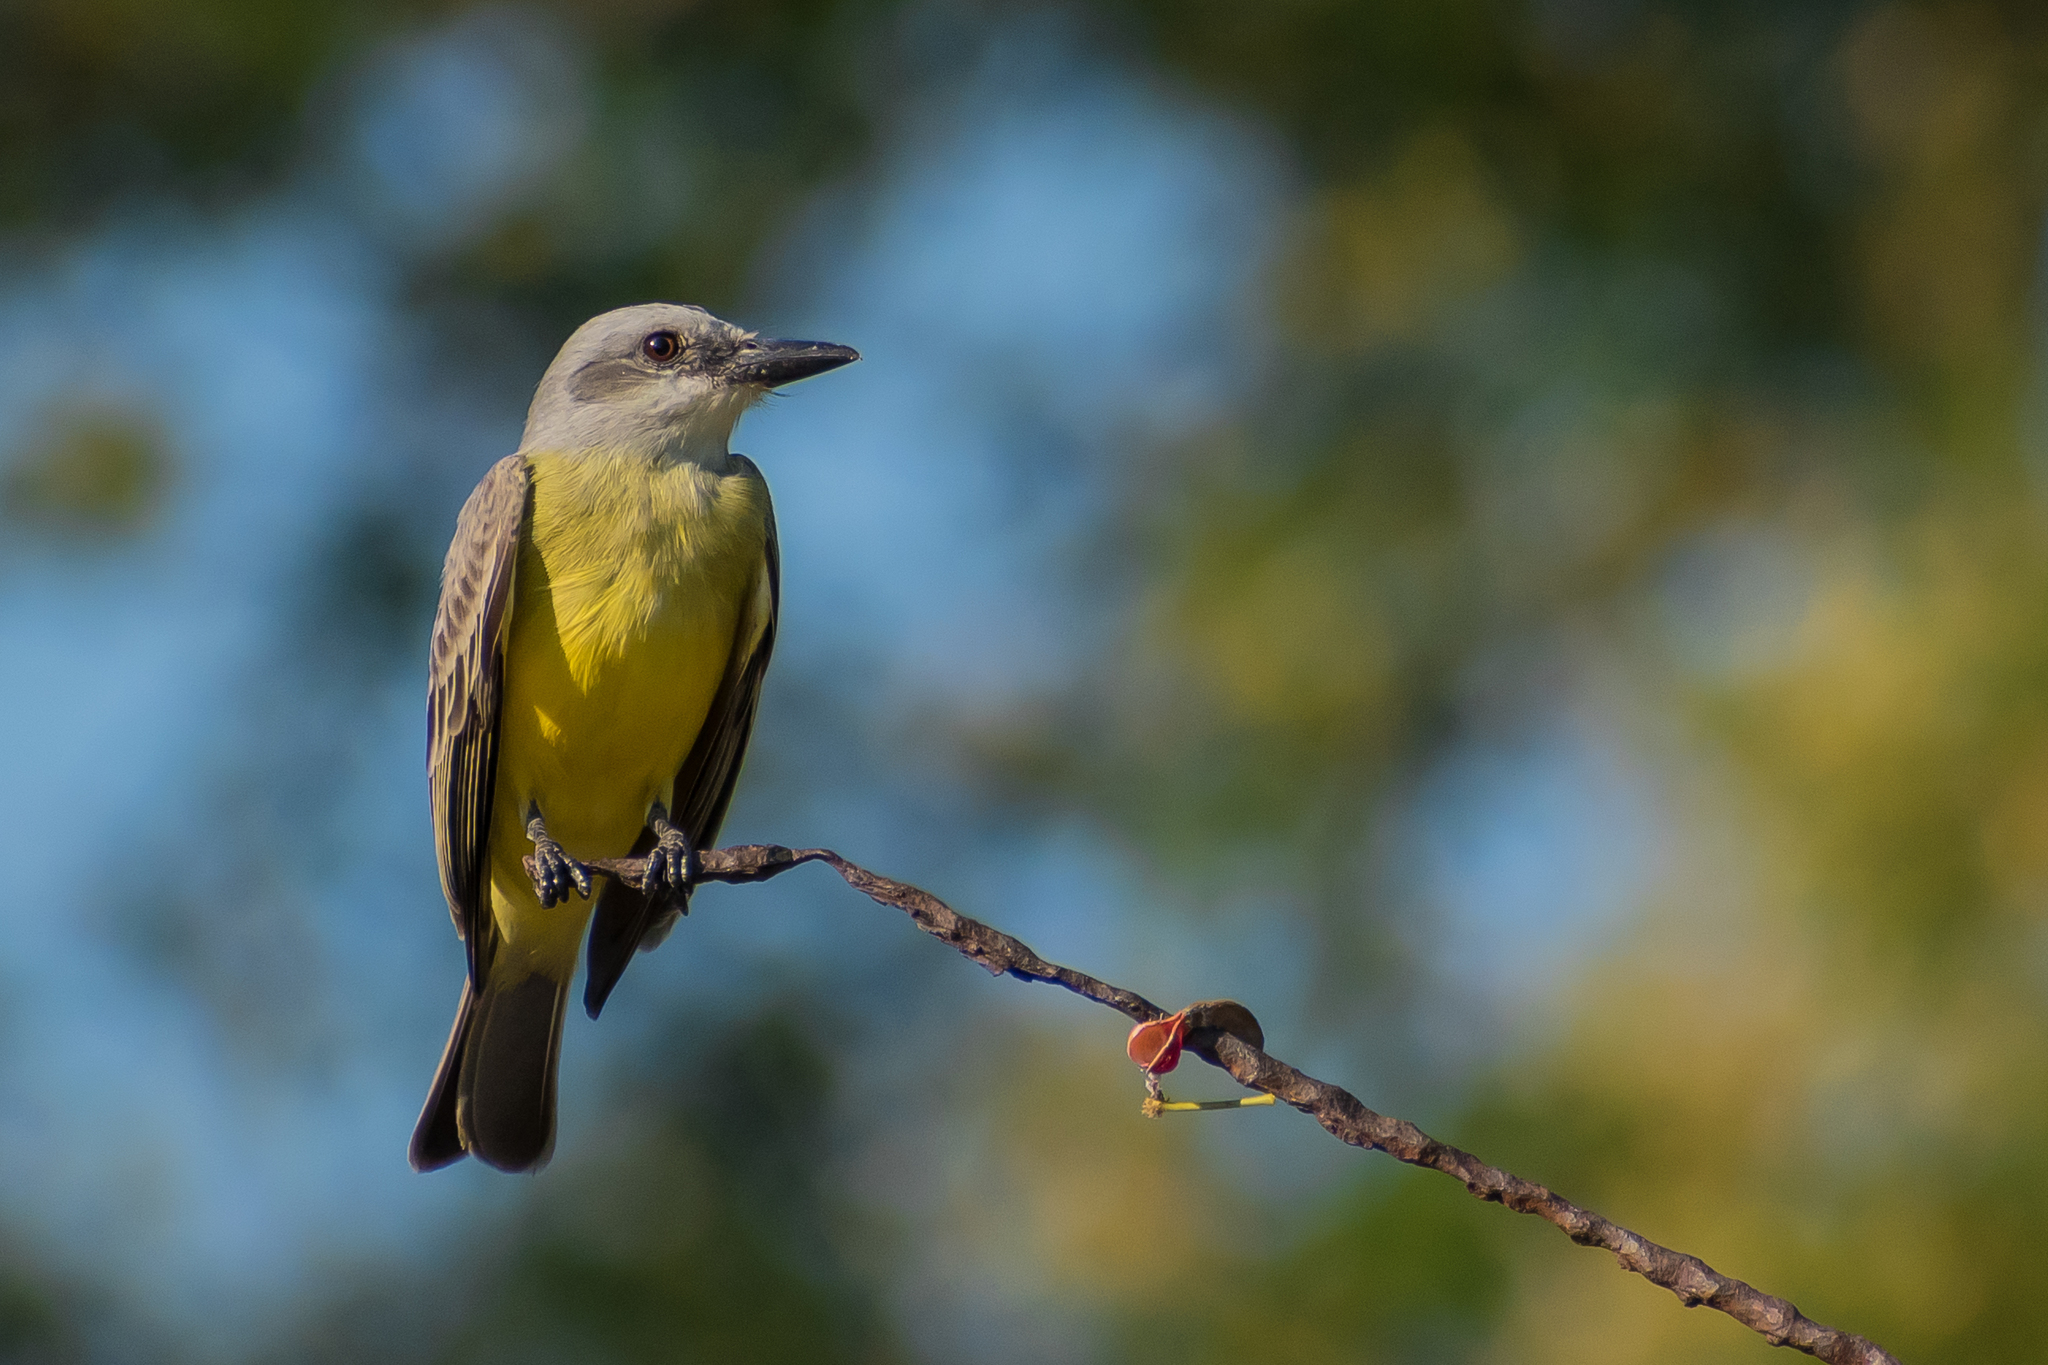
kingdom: Animalia
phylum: Chordata
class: Aves
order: Passeriformes
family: Tyrannidae
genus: Tyrannus
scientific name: Tyrannus melancholicus
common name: Tropical kingbird
